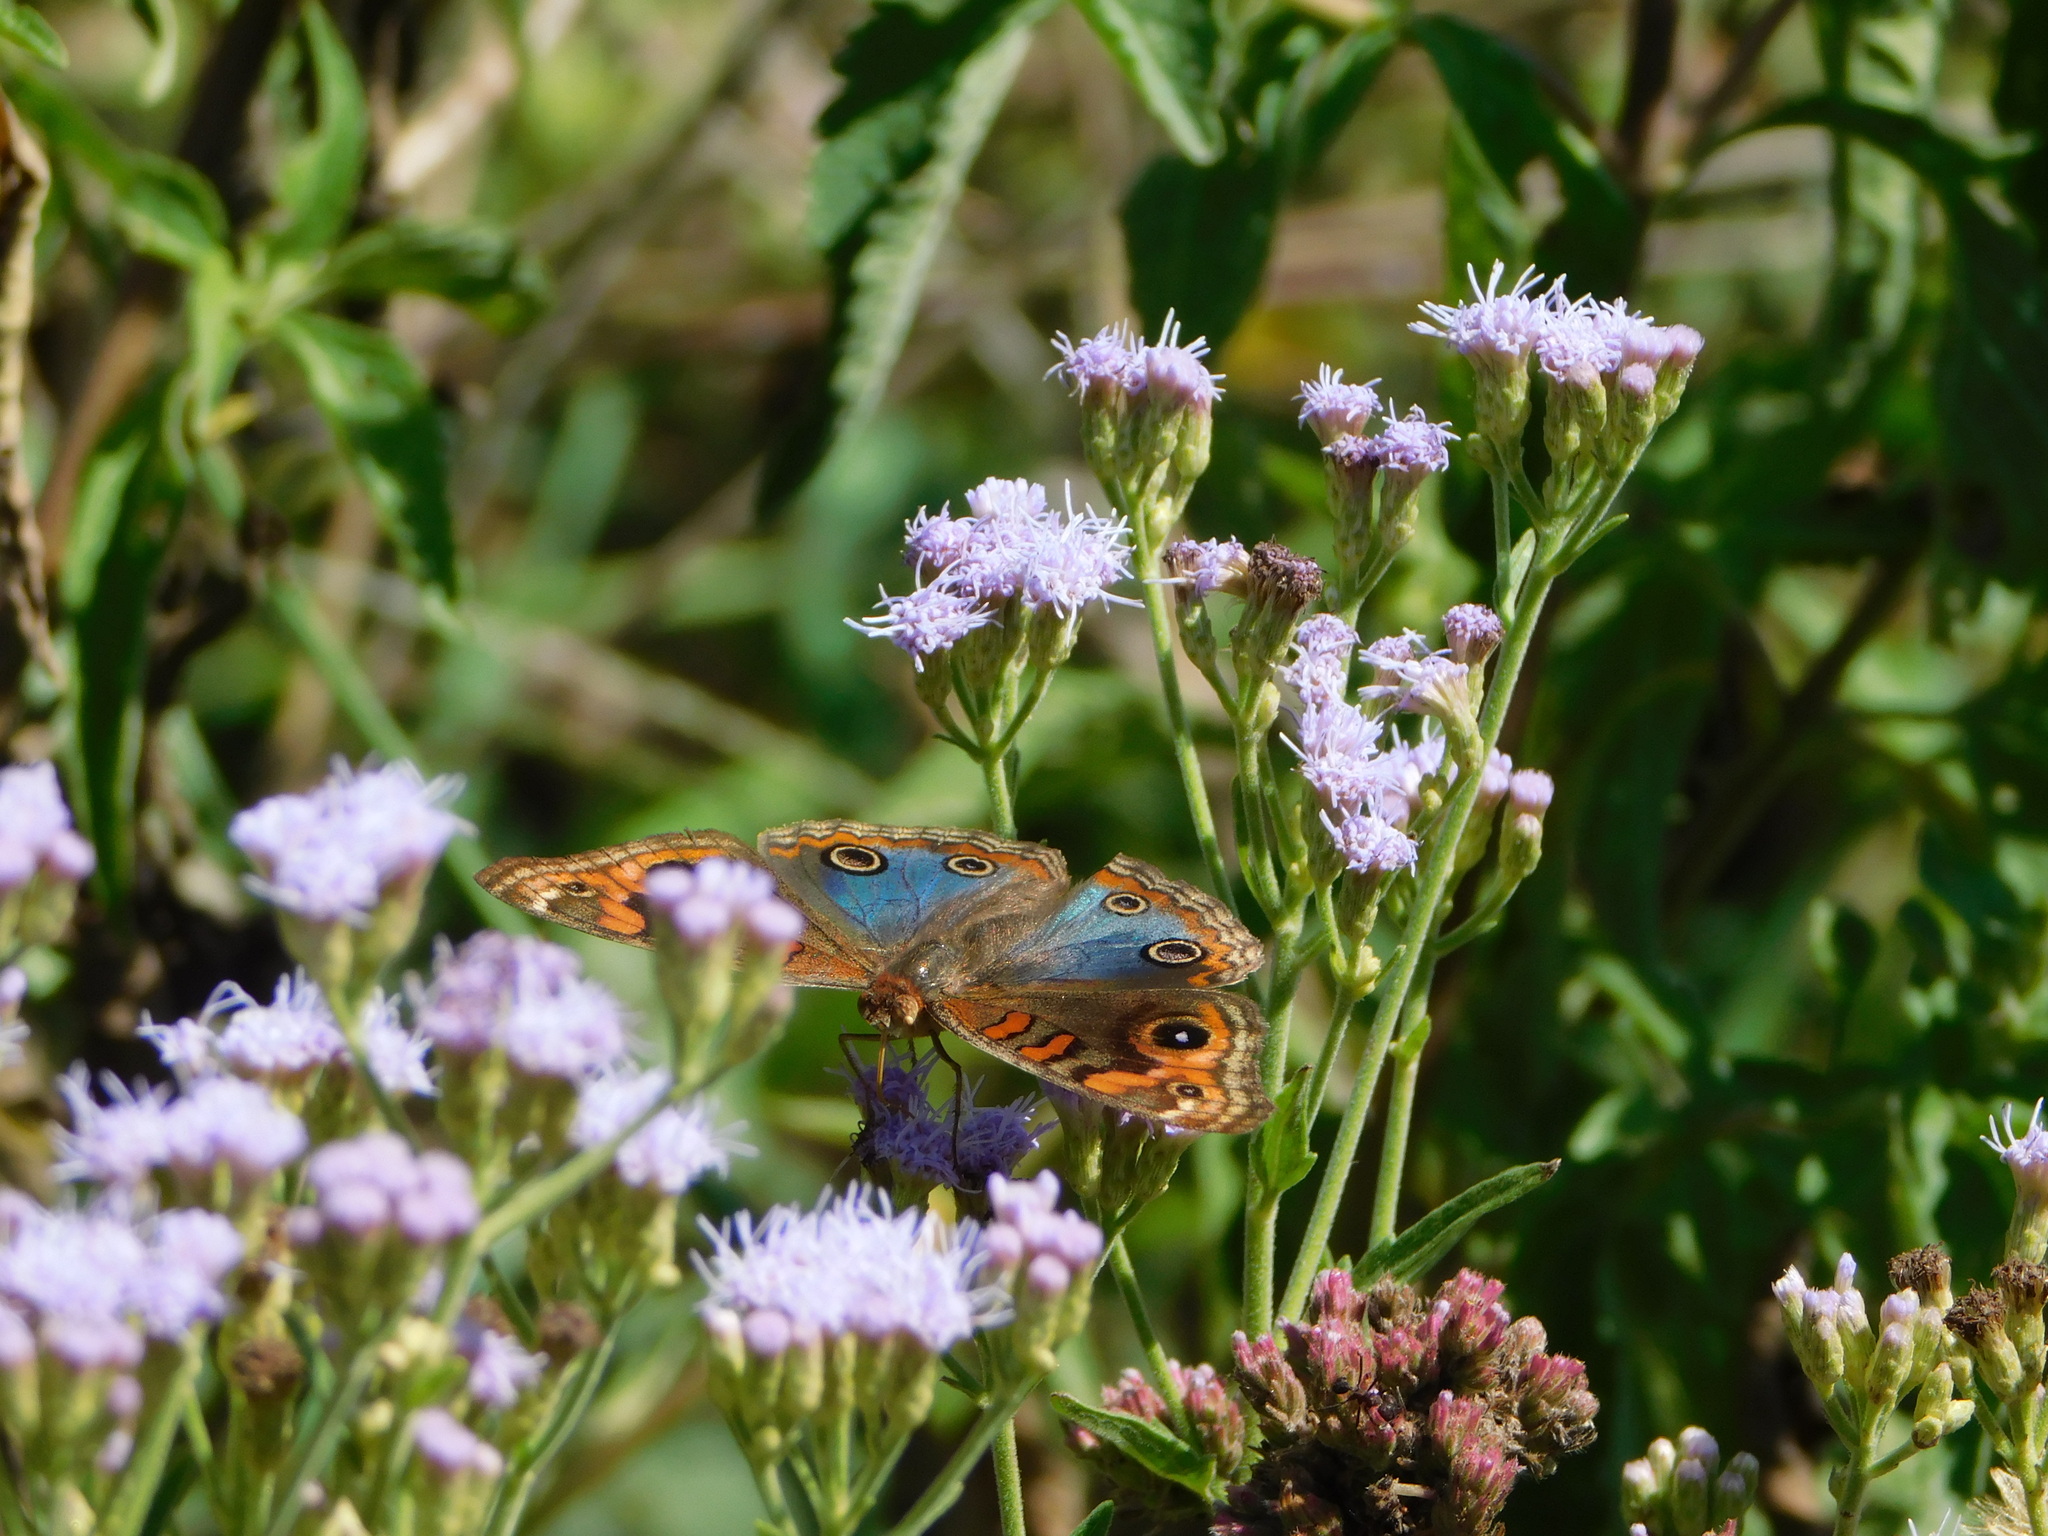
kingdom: Animalia
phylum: Arthropoda
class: Insecta
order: Lepidoptera
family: Nymphalidae
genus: Junonia
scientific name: Junonia lavinia
